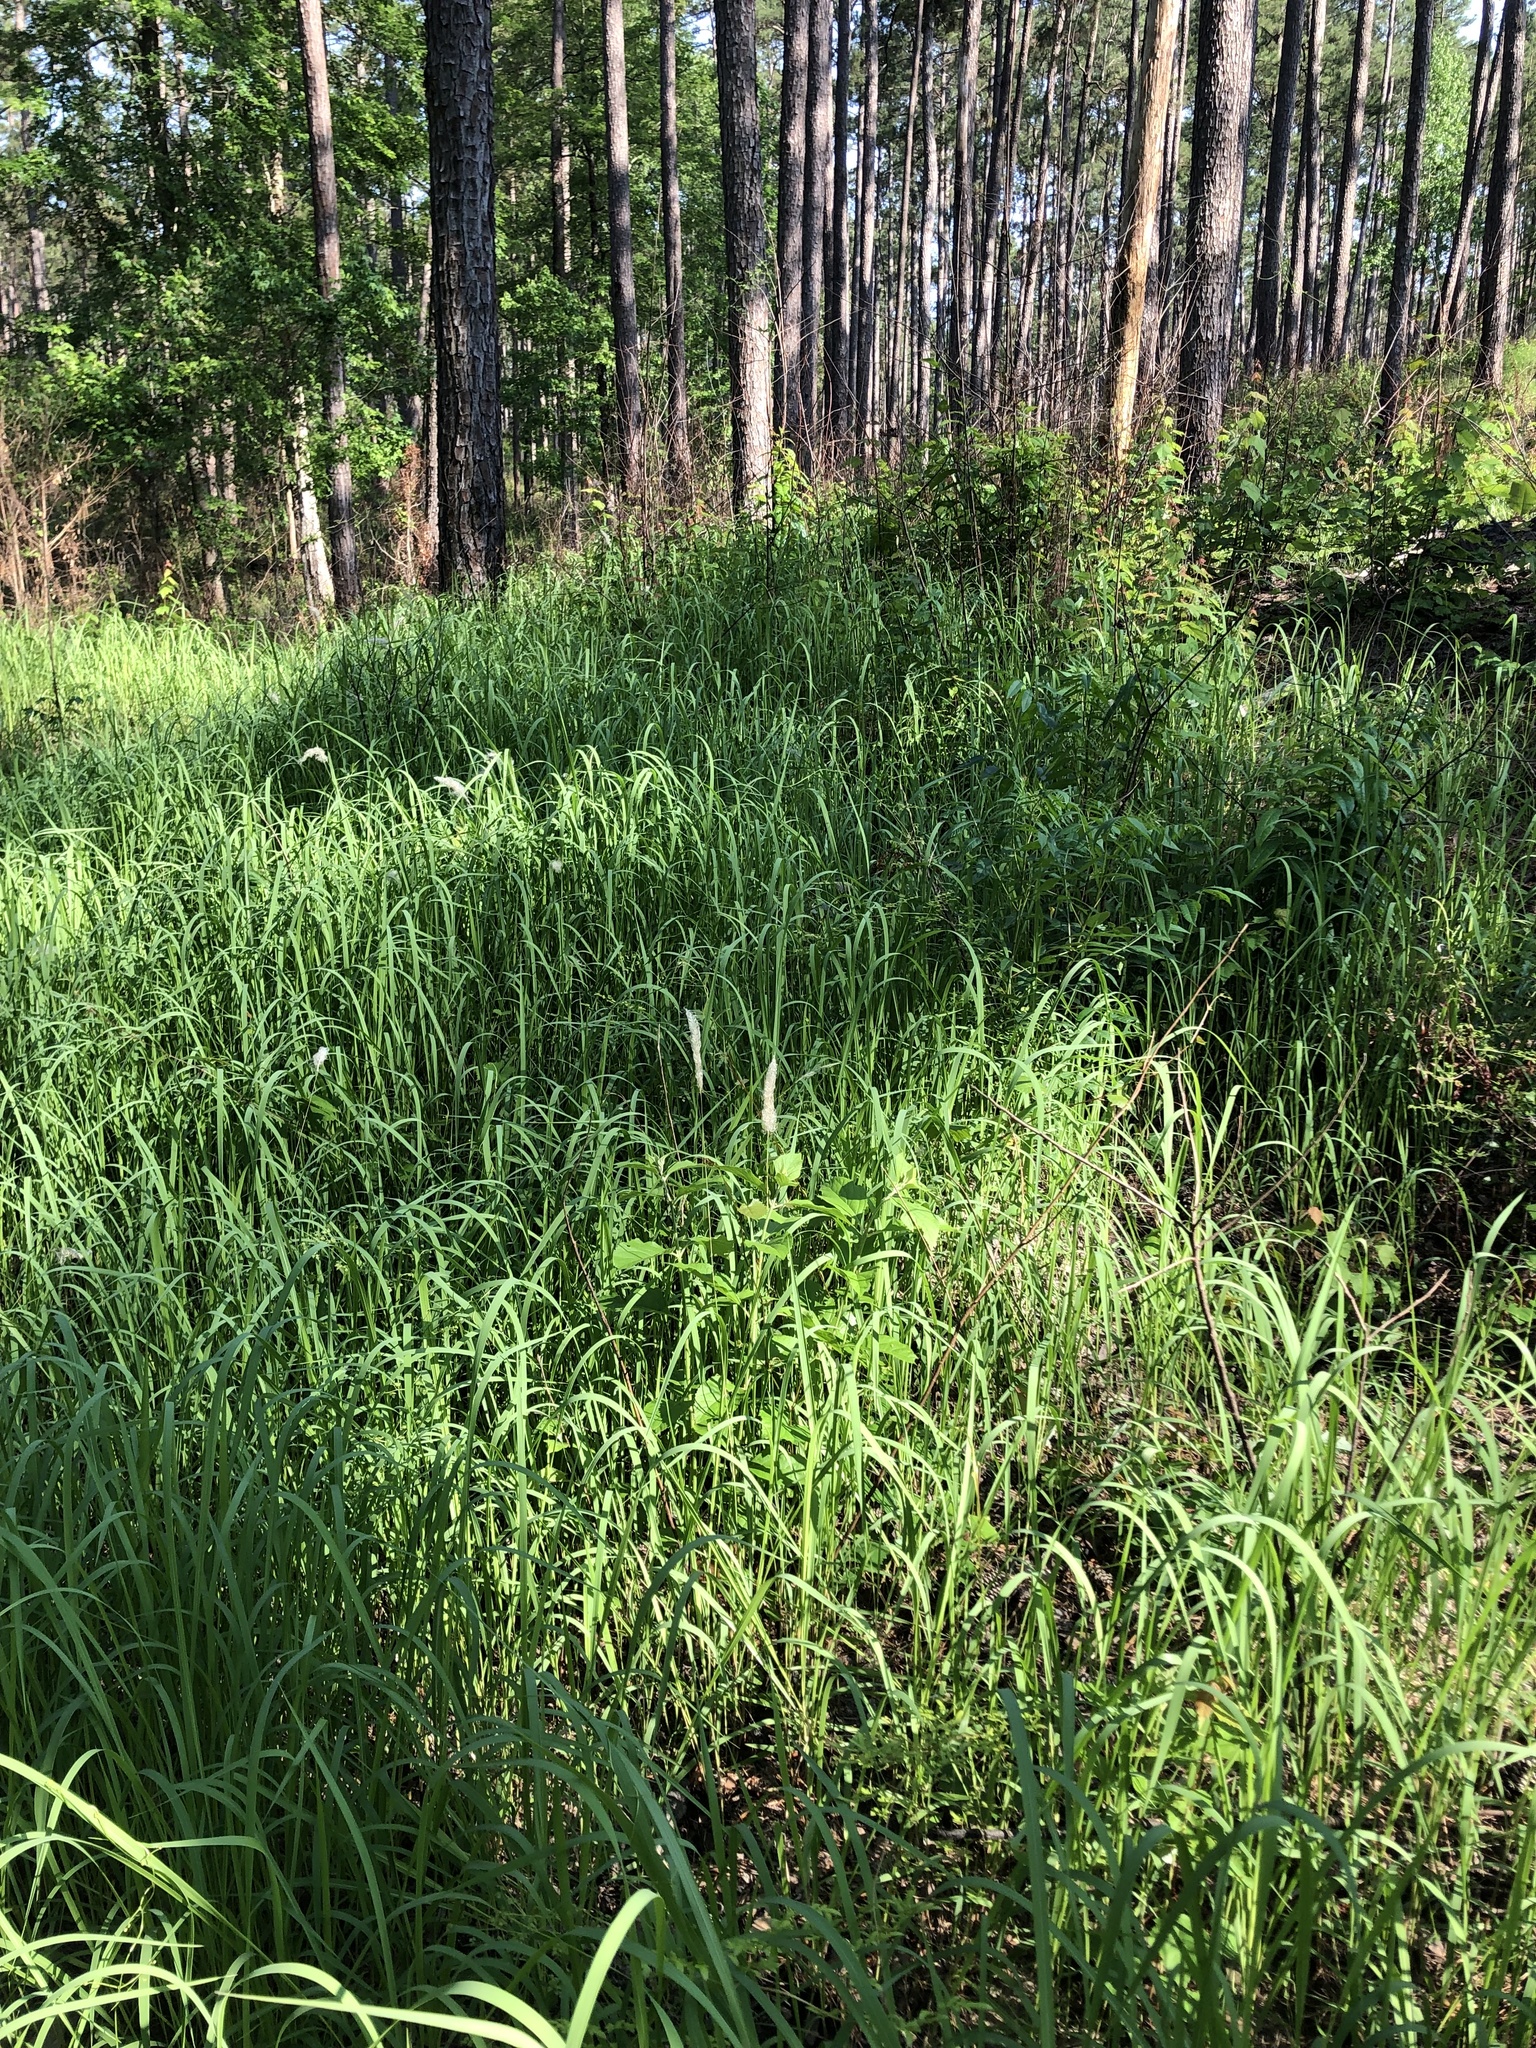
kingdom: Plantae
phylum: Tracheophyta
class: Liliopsida
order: Poales
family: Poaceae
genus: Imperata
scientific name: Imperata cylindrica
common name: Cogongrass
